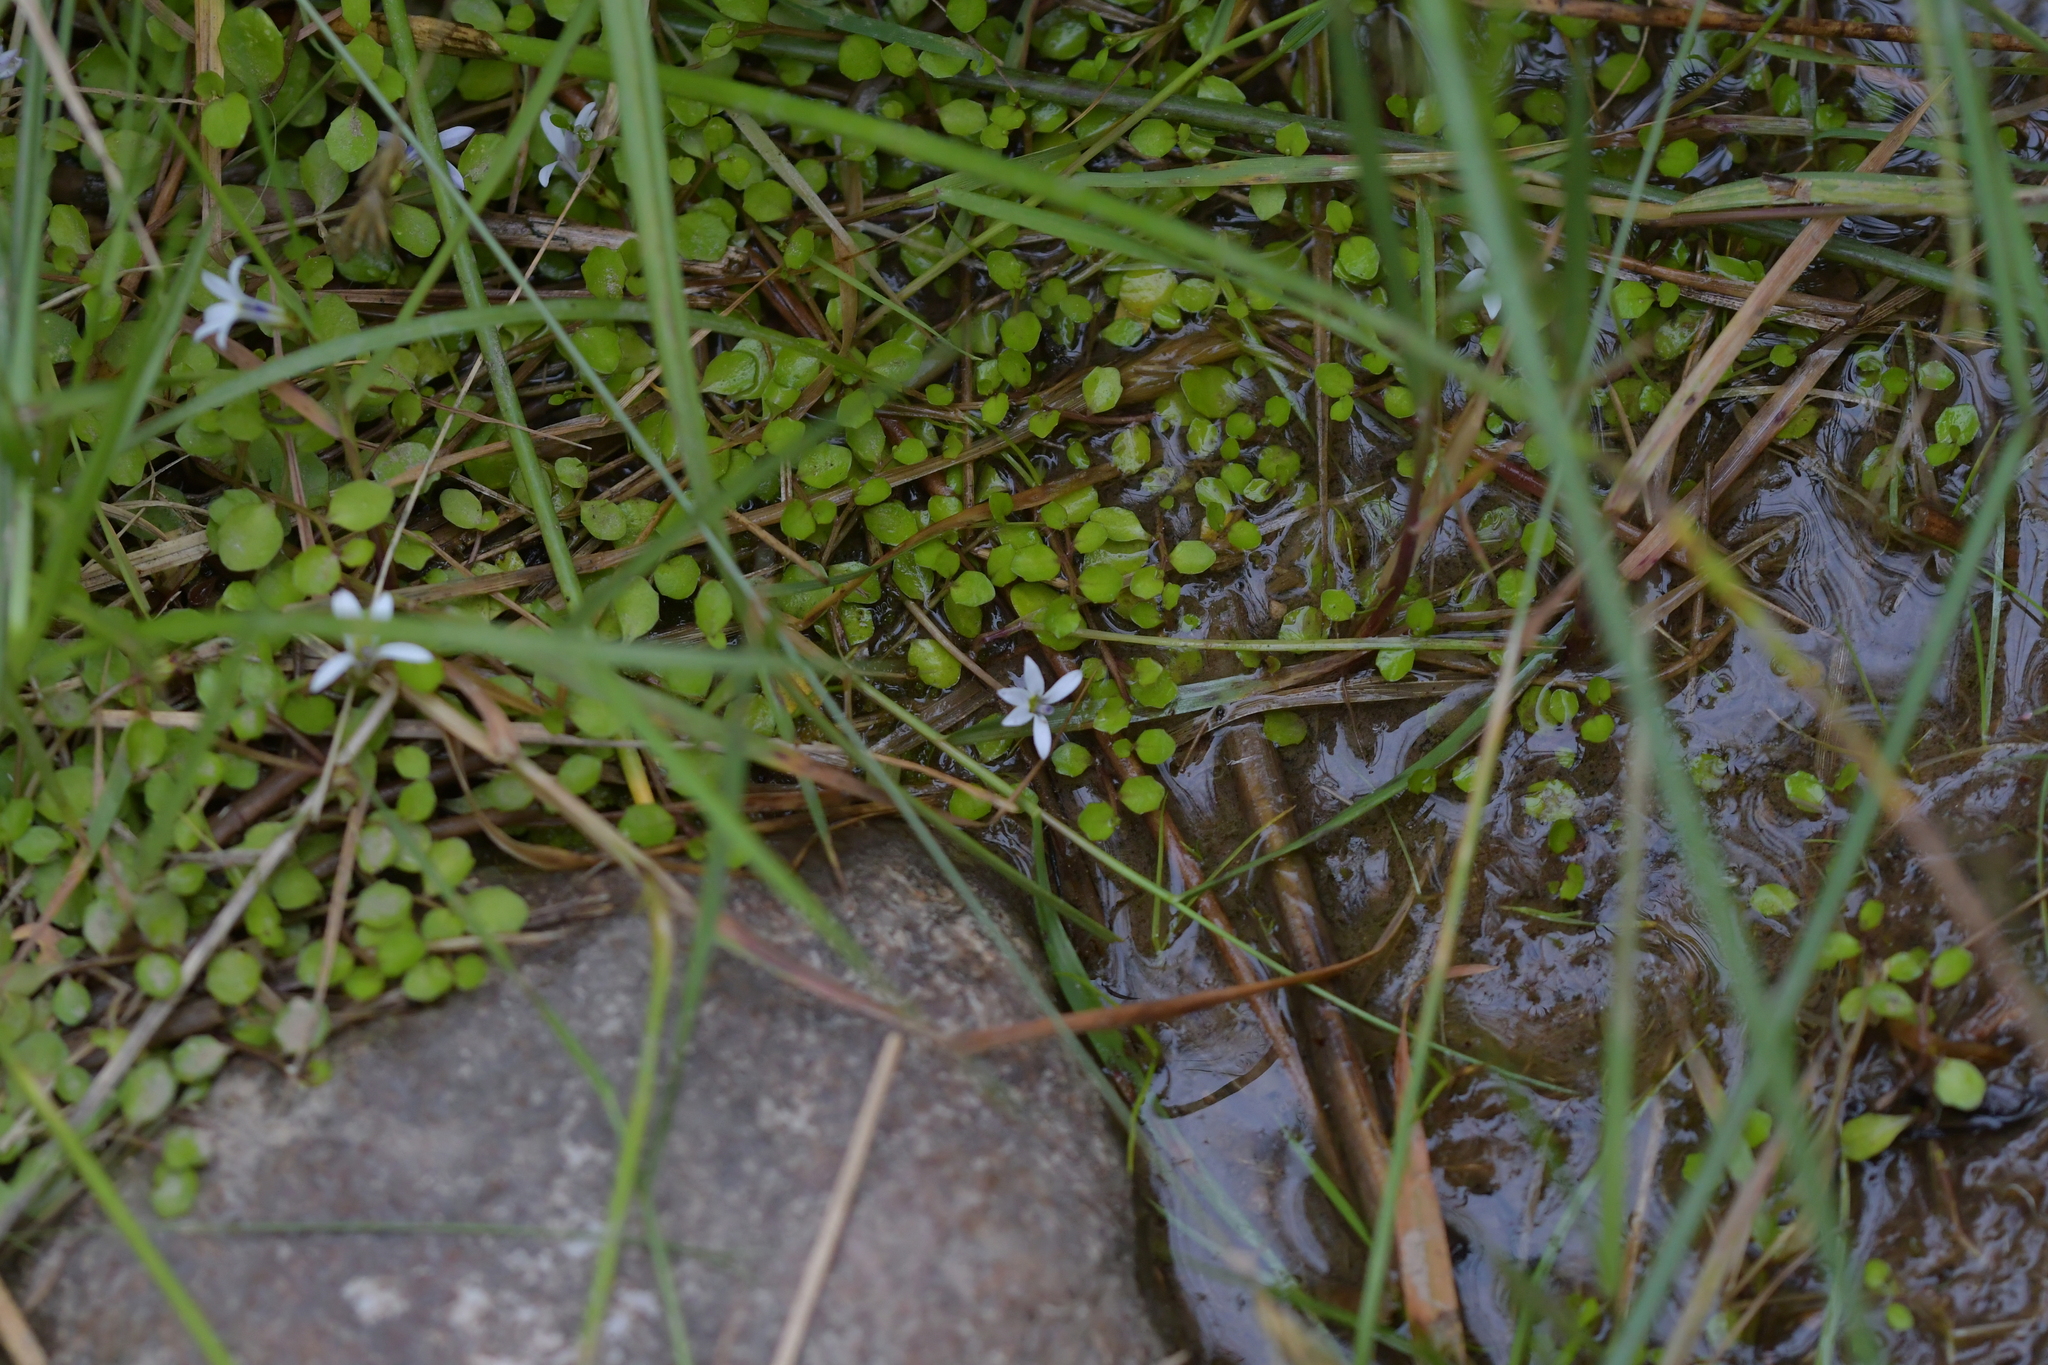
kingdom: Plantae
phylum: Tracheophyta
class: Magnoliopsida
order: Asterales
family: Campanulaceae
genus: Lobelia
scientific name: Lobelia angulata
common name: Lawn lobelia
